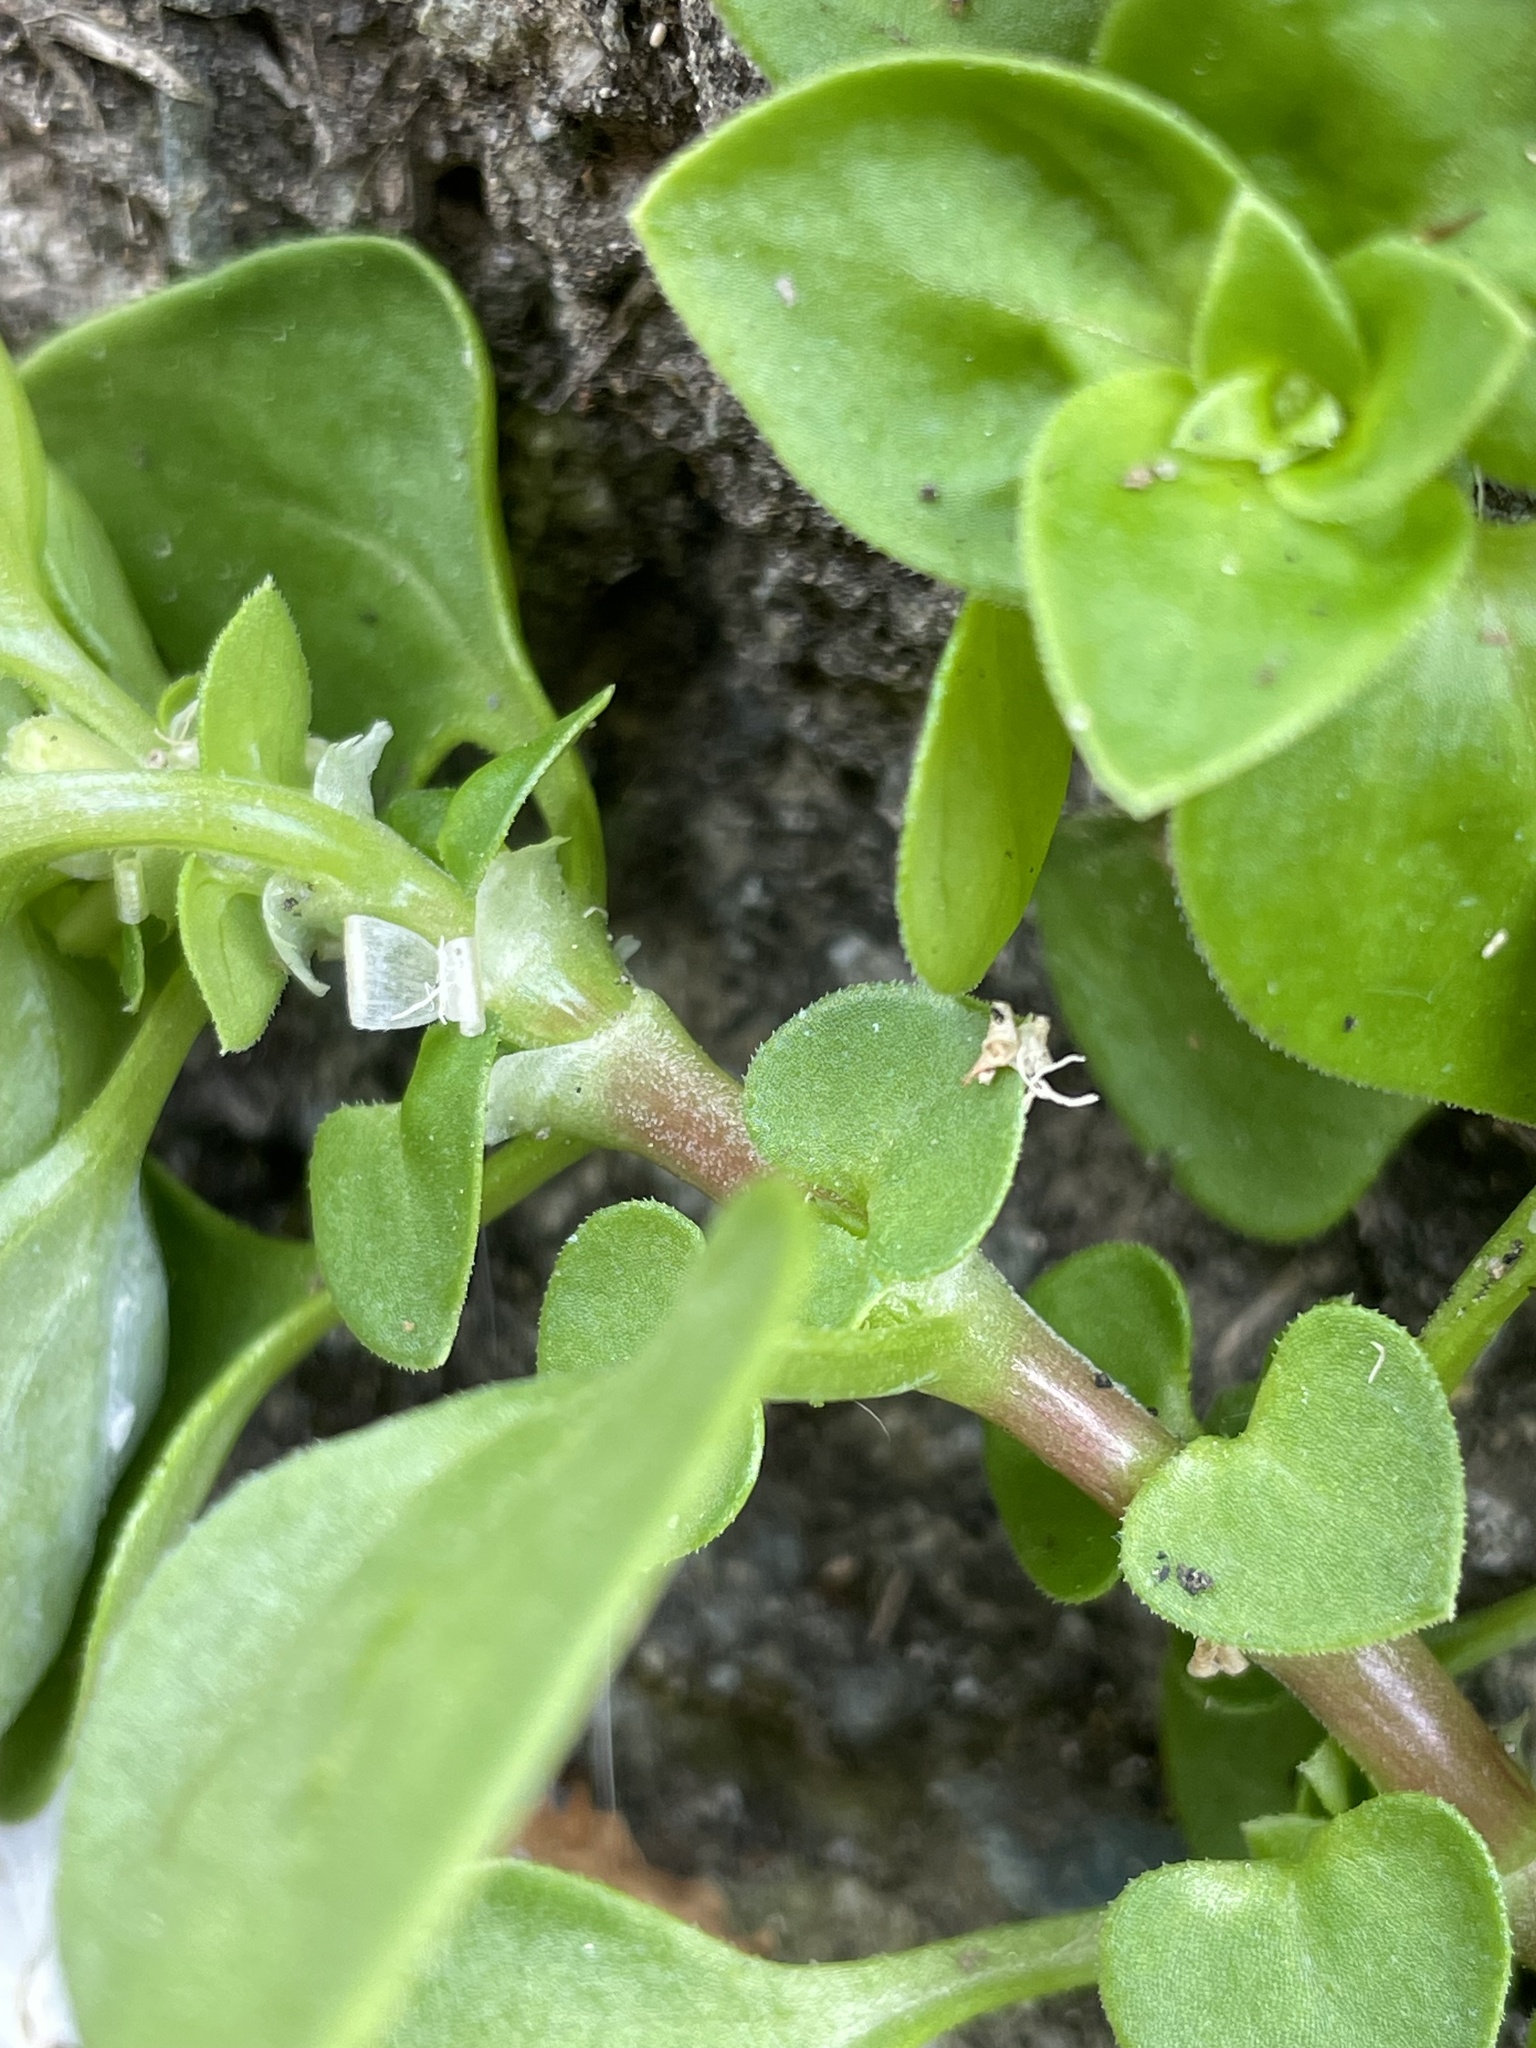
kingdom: Plantae
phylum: Tracheophyta
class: Magnoliopsida
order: Gentianales
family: Rubiaceae
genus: Theligonum
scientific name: Theligonum cynocrambe
